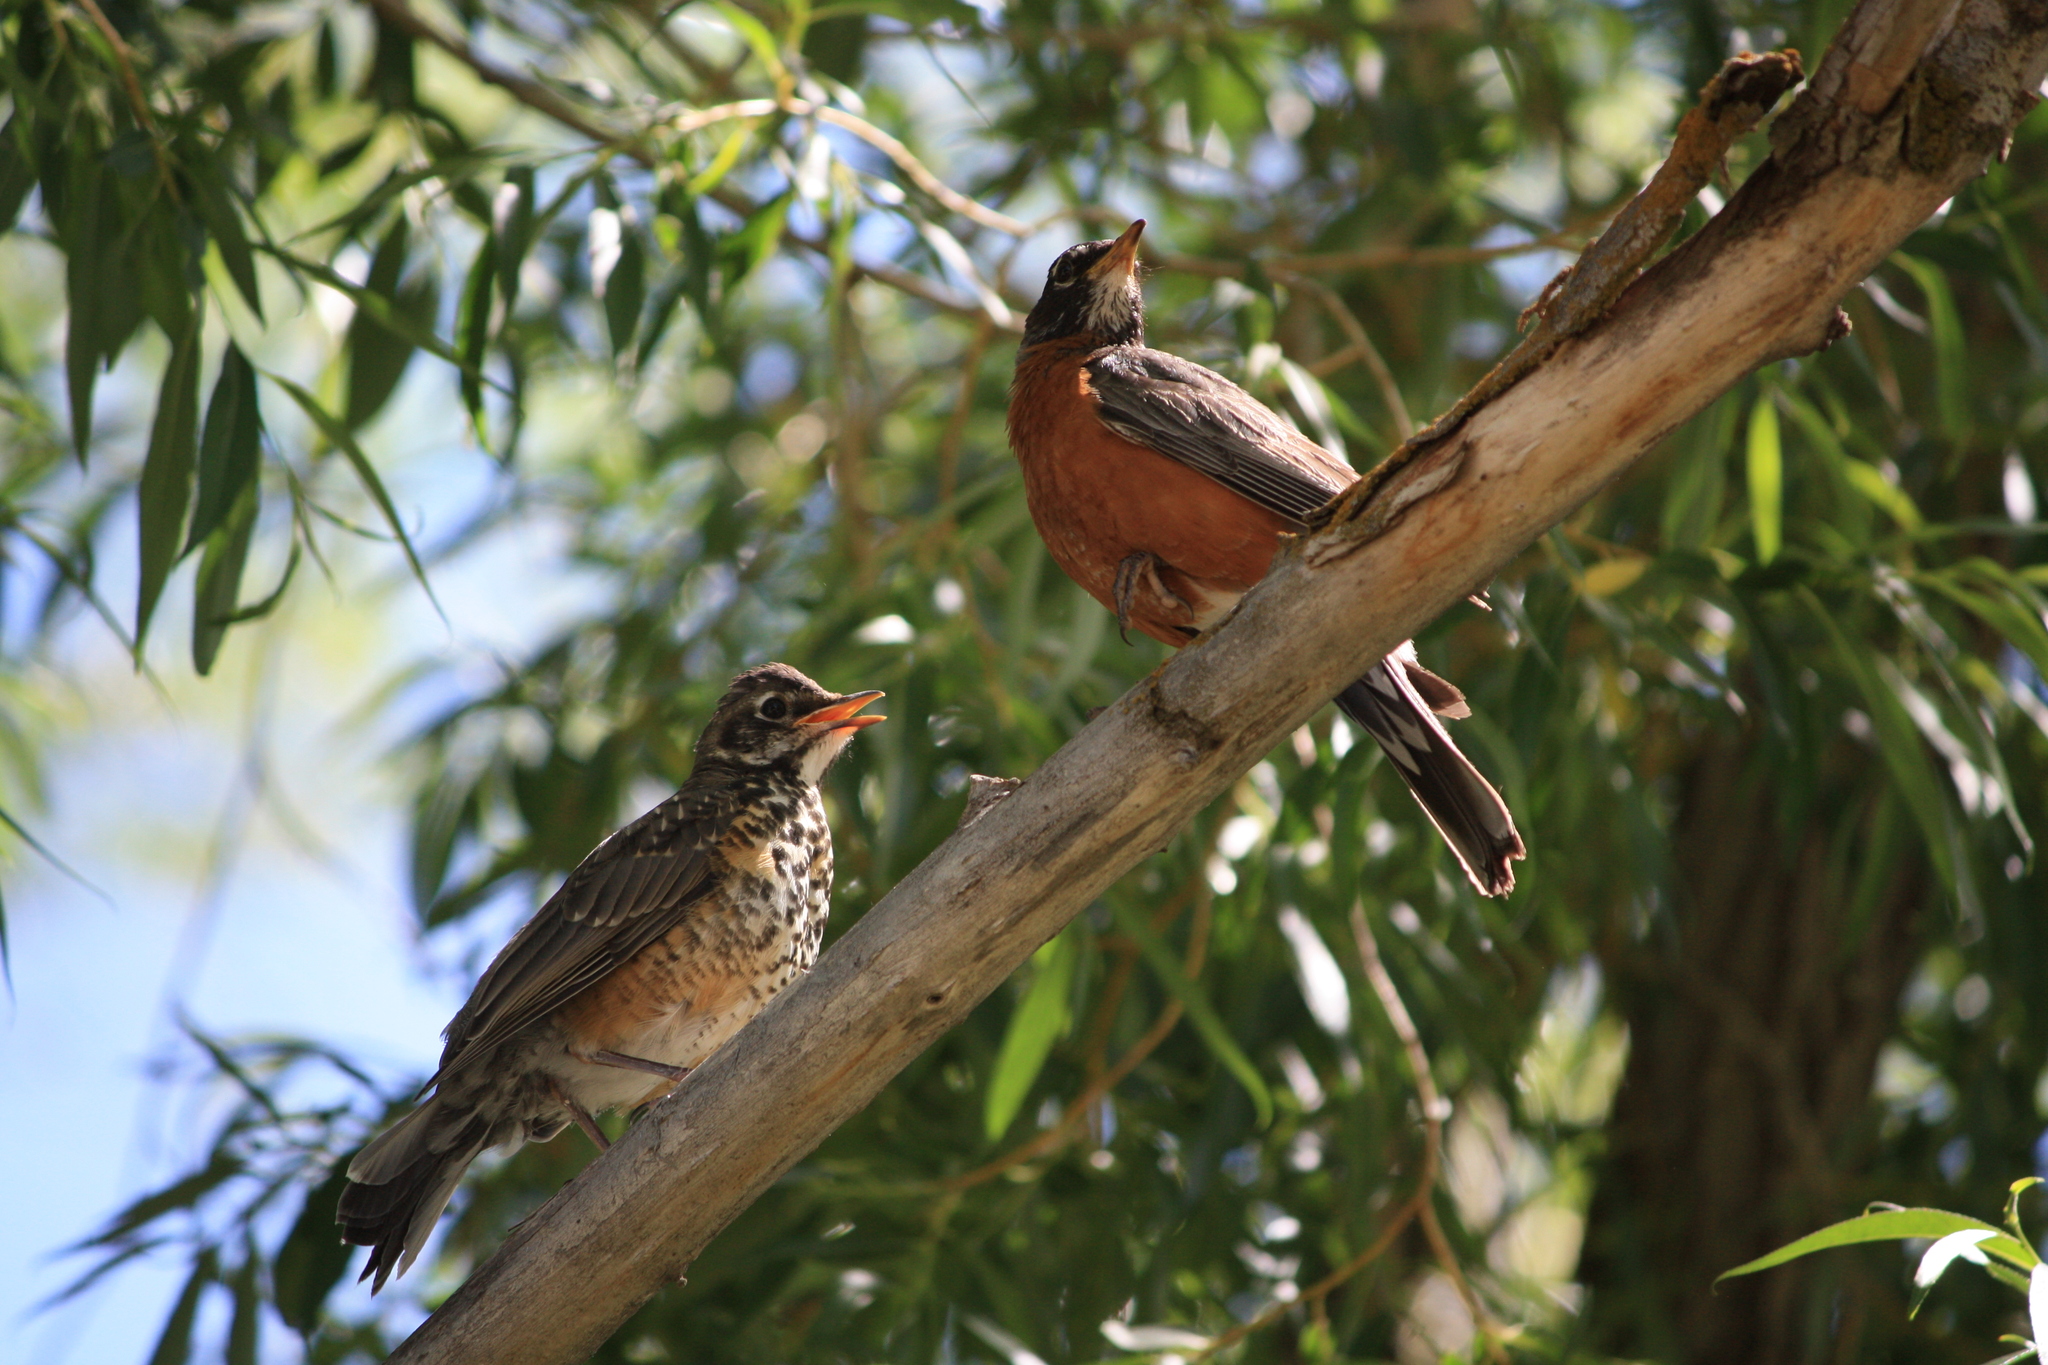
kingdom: Animalia
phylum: Chordata
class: Aves
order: Passeriformes
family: Turdidae
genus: Turdus
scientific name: Turdus migratorius
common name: American robin
